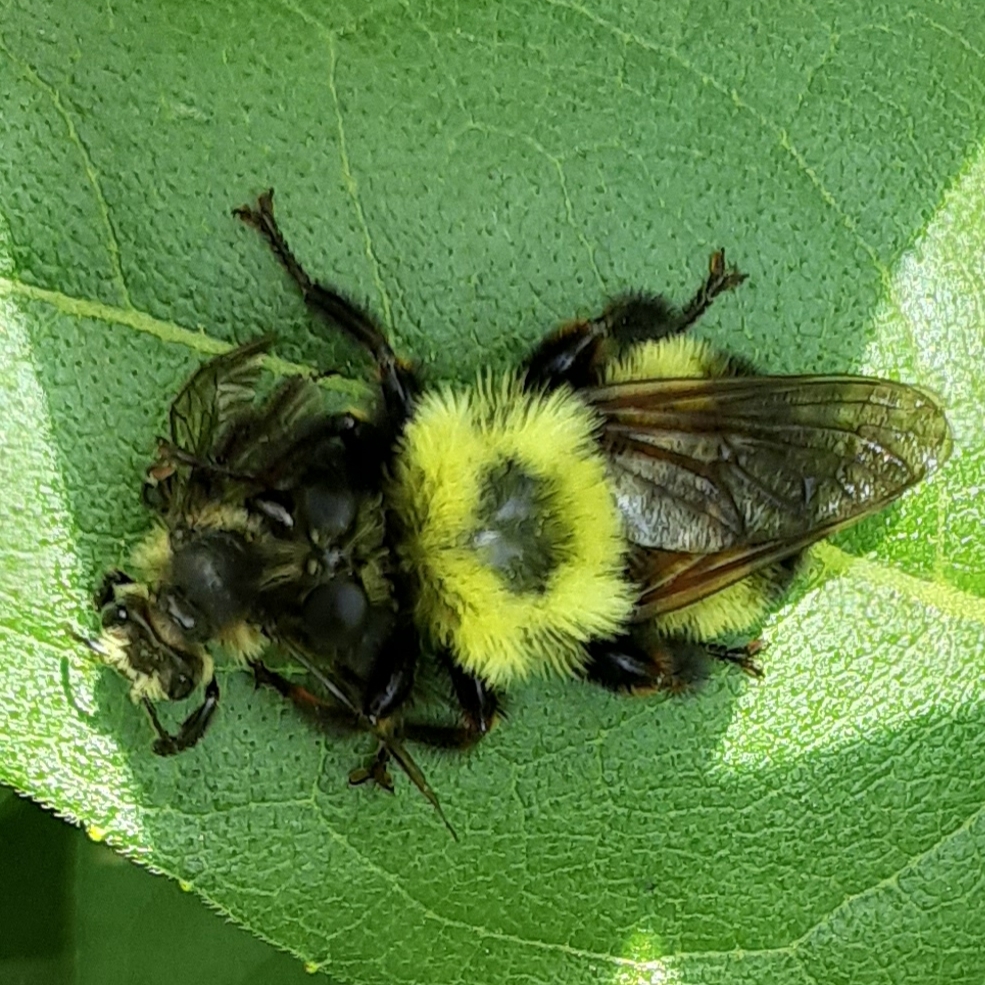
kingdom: Animalia
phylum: Arthropoda
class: Insecta
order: Diptera
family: Asilidae
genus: Laphria
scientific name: Laphria thoracica
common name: Bumble bee mimic robber fly
